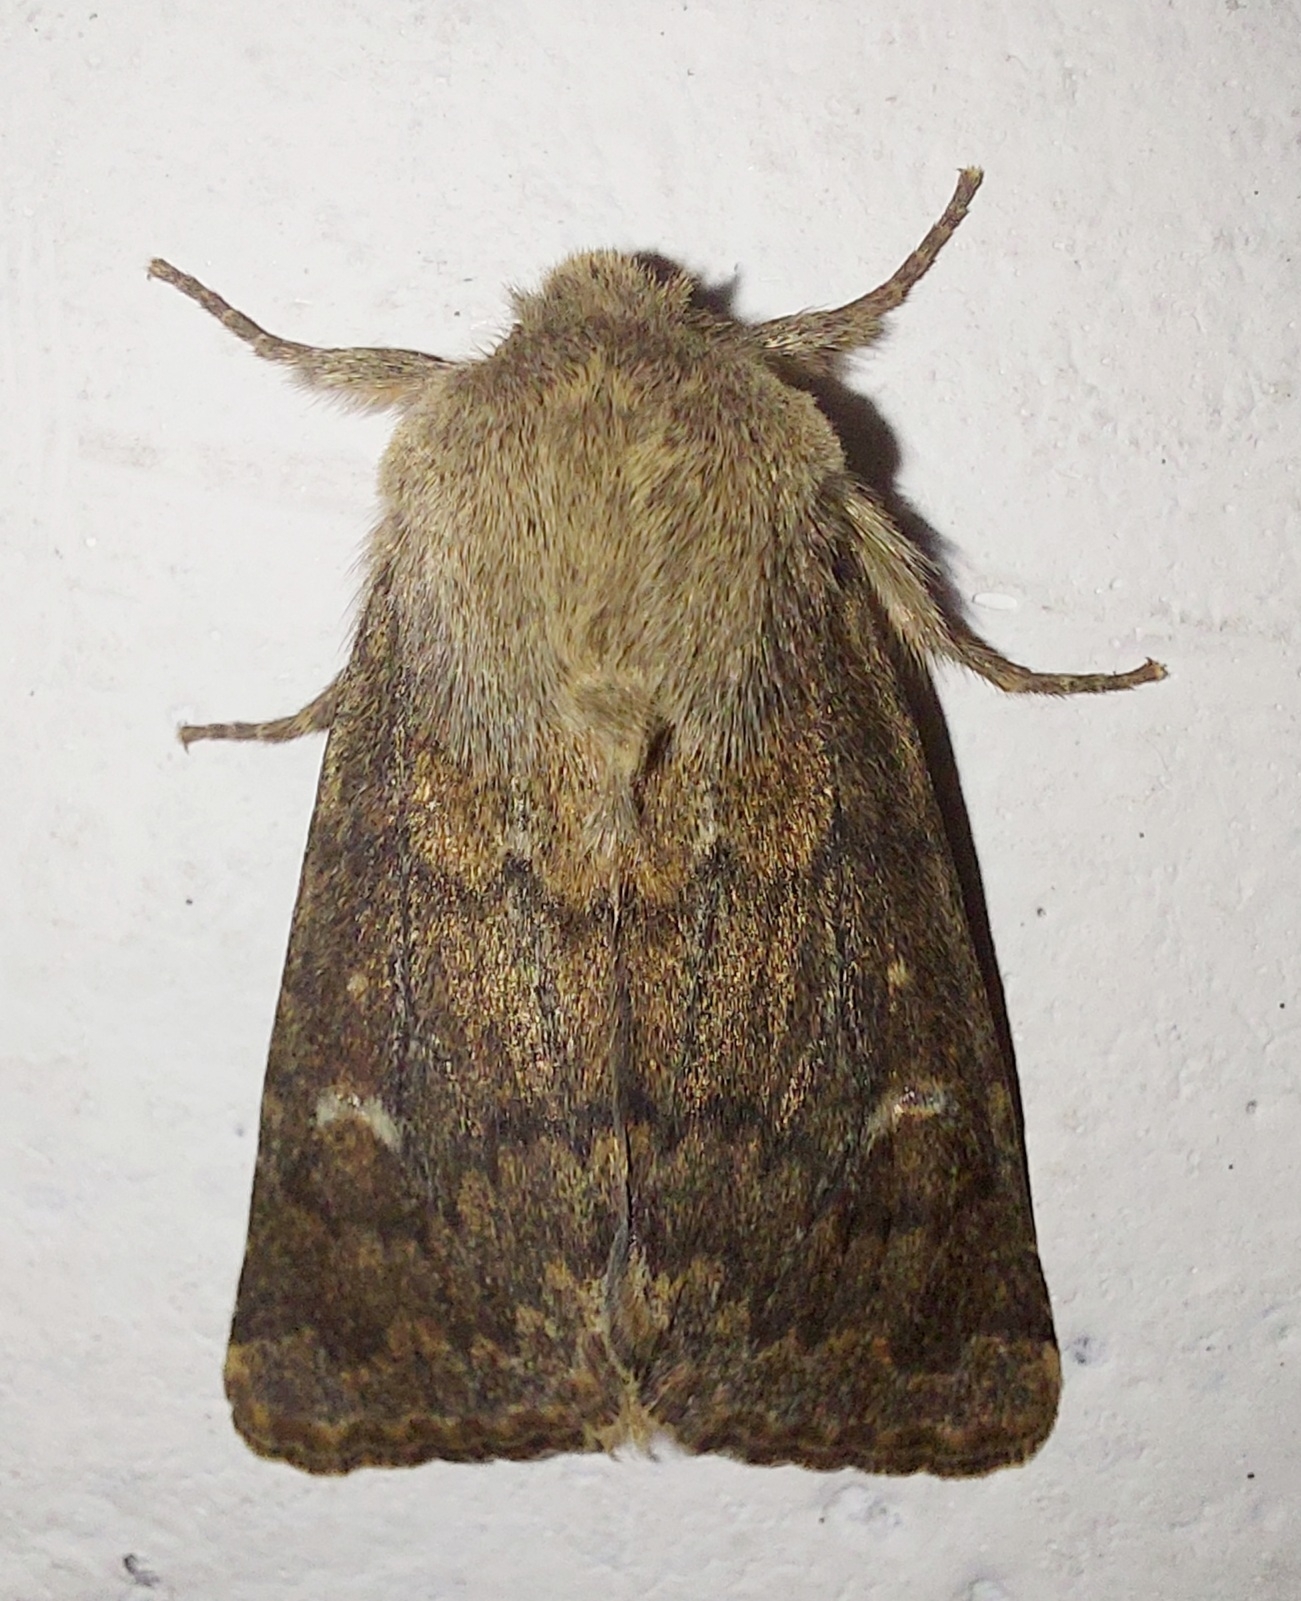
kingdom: Animalia
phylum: Arthropoda
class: Insecta
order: Lepidoptera
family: Noctuidae
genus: Dasypolia
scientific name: Dasypolia templi
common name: Brindled ochre
